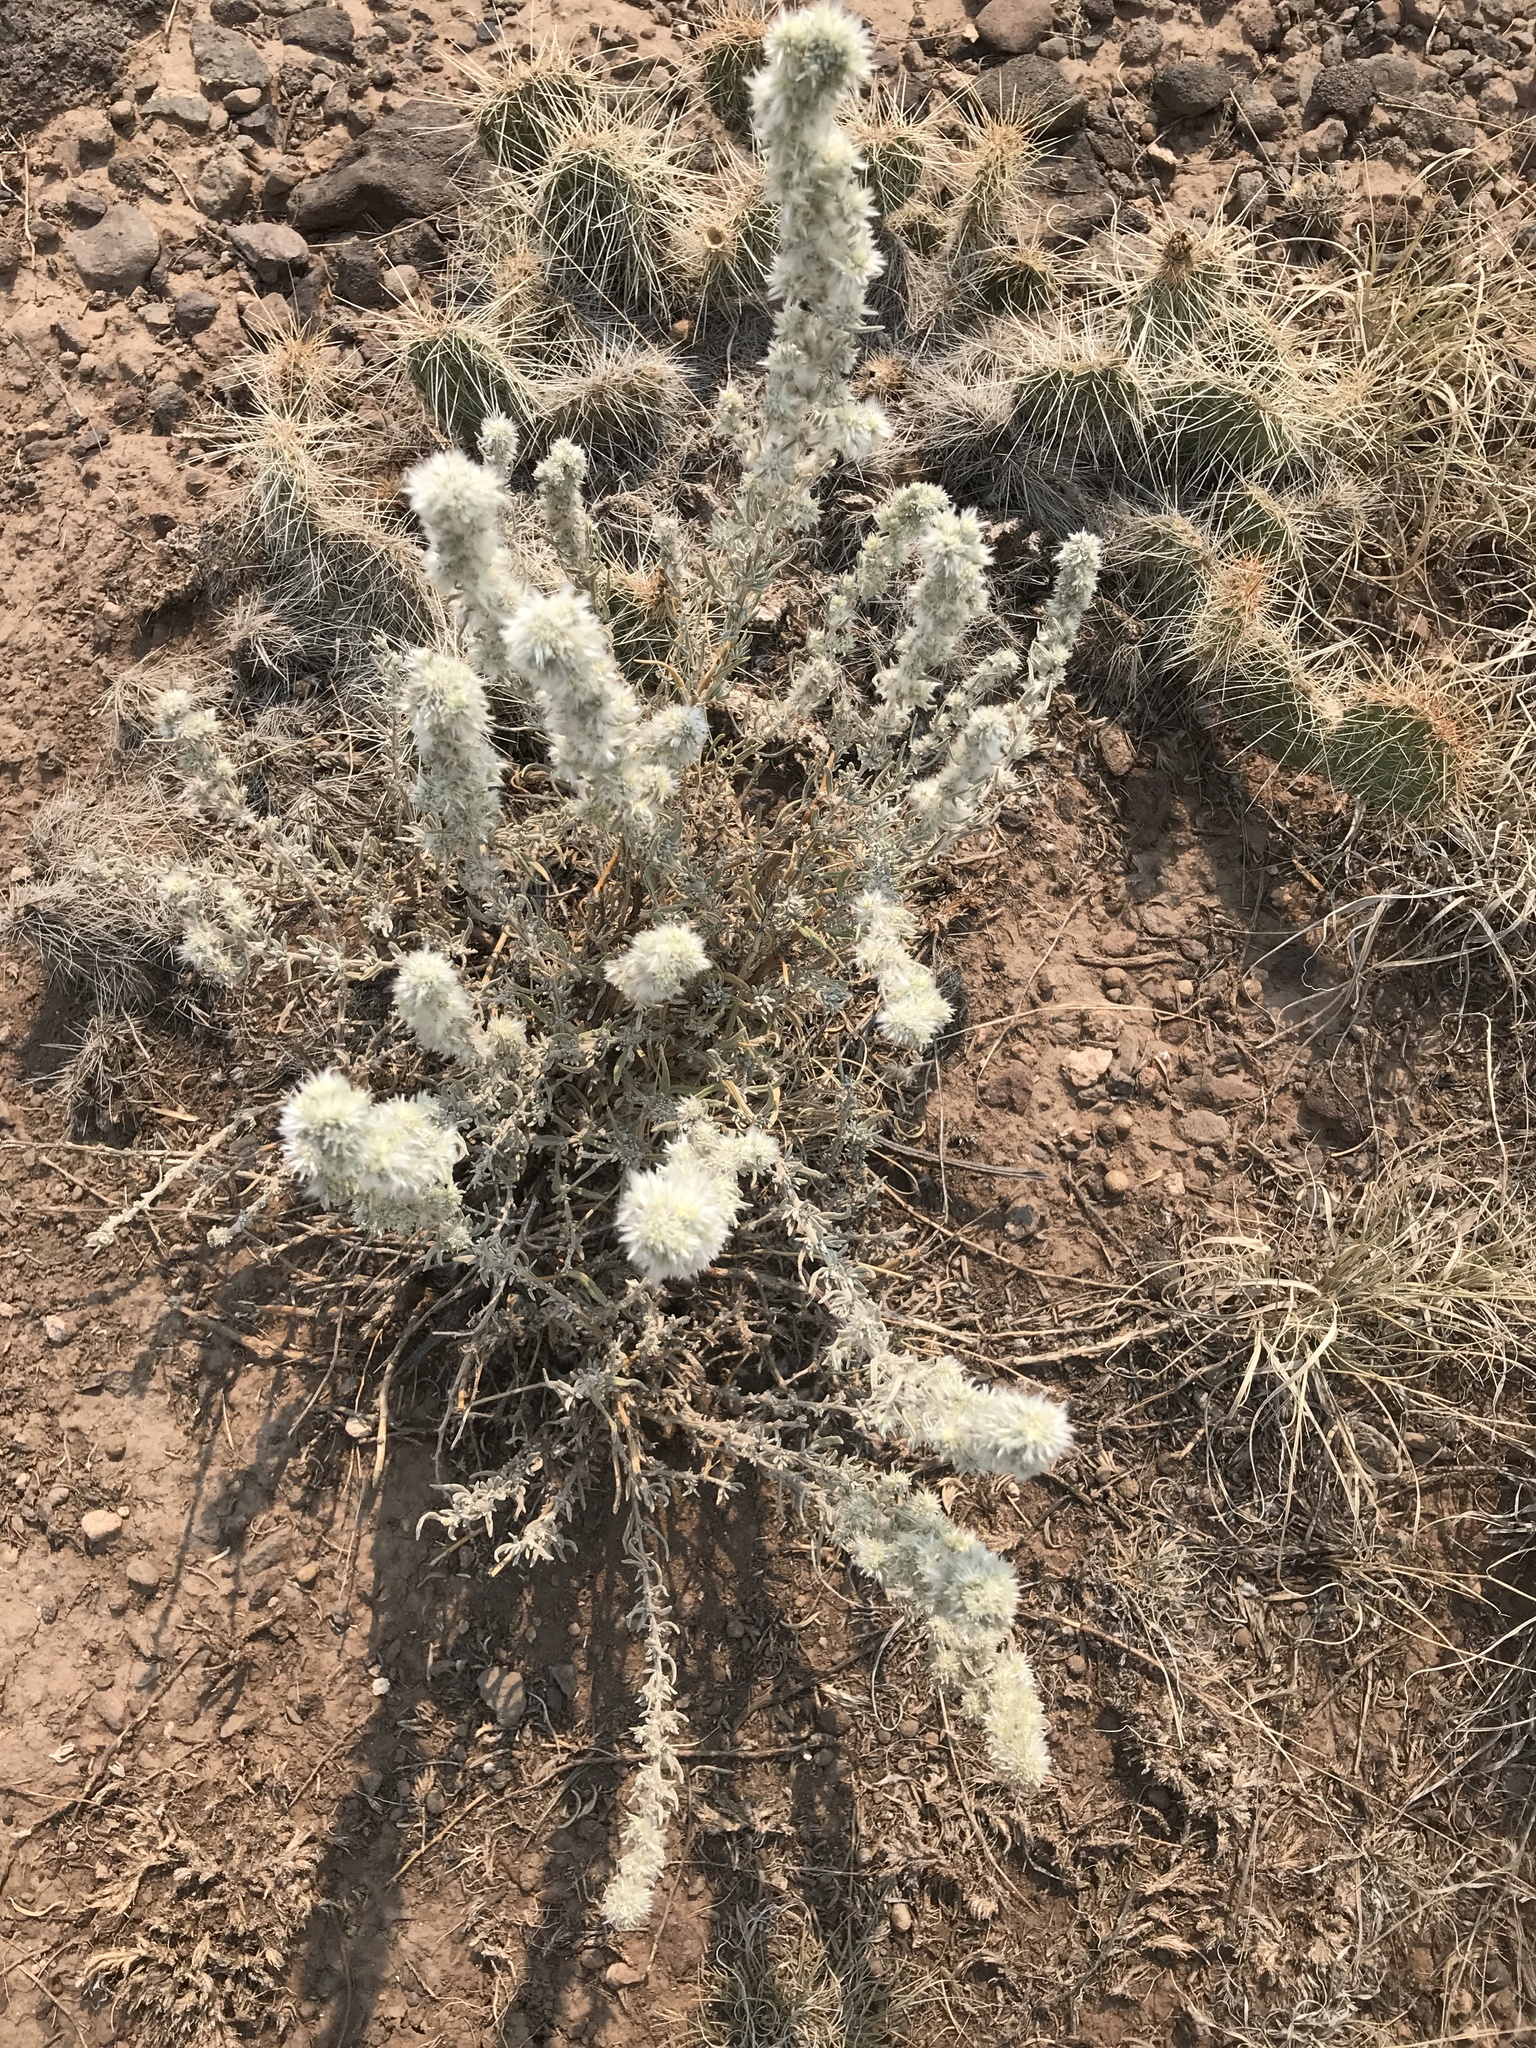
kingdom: Plantae
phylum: Tracheophyta
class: Magnoliopsida
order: Caryophyllales
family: Amaranthaceae
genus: Krascheninnikovia
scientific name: Krascheninnikovia lanata
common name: Winterfat
